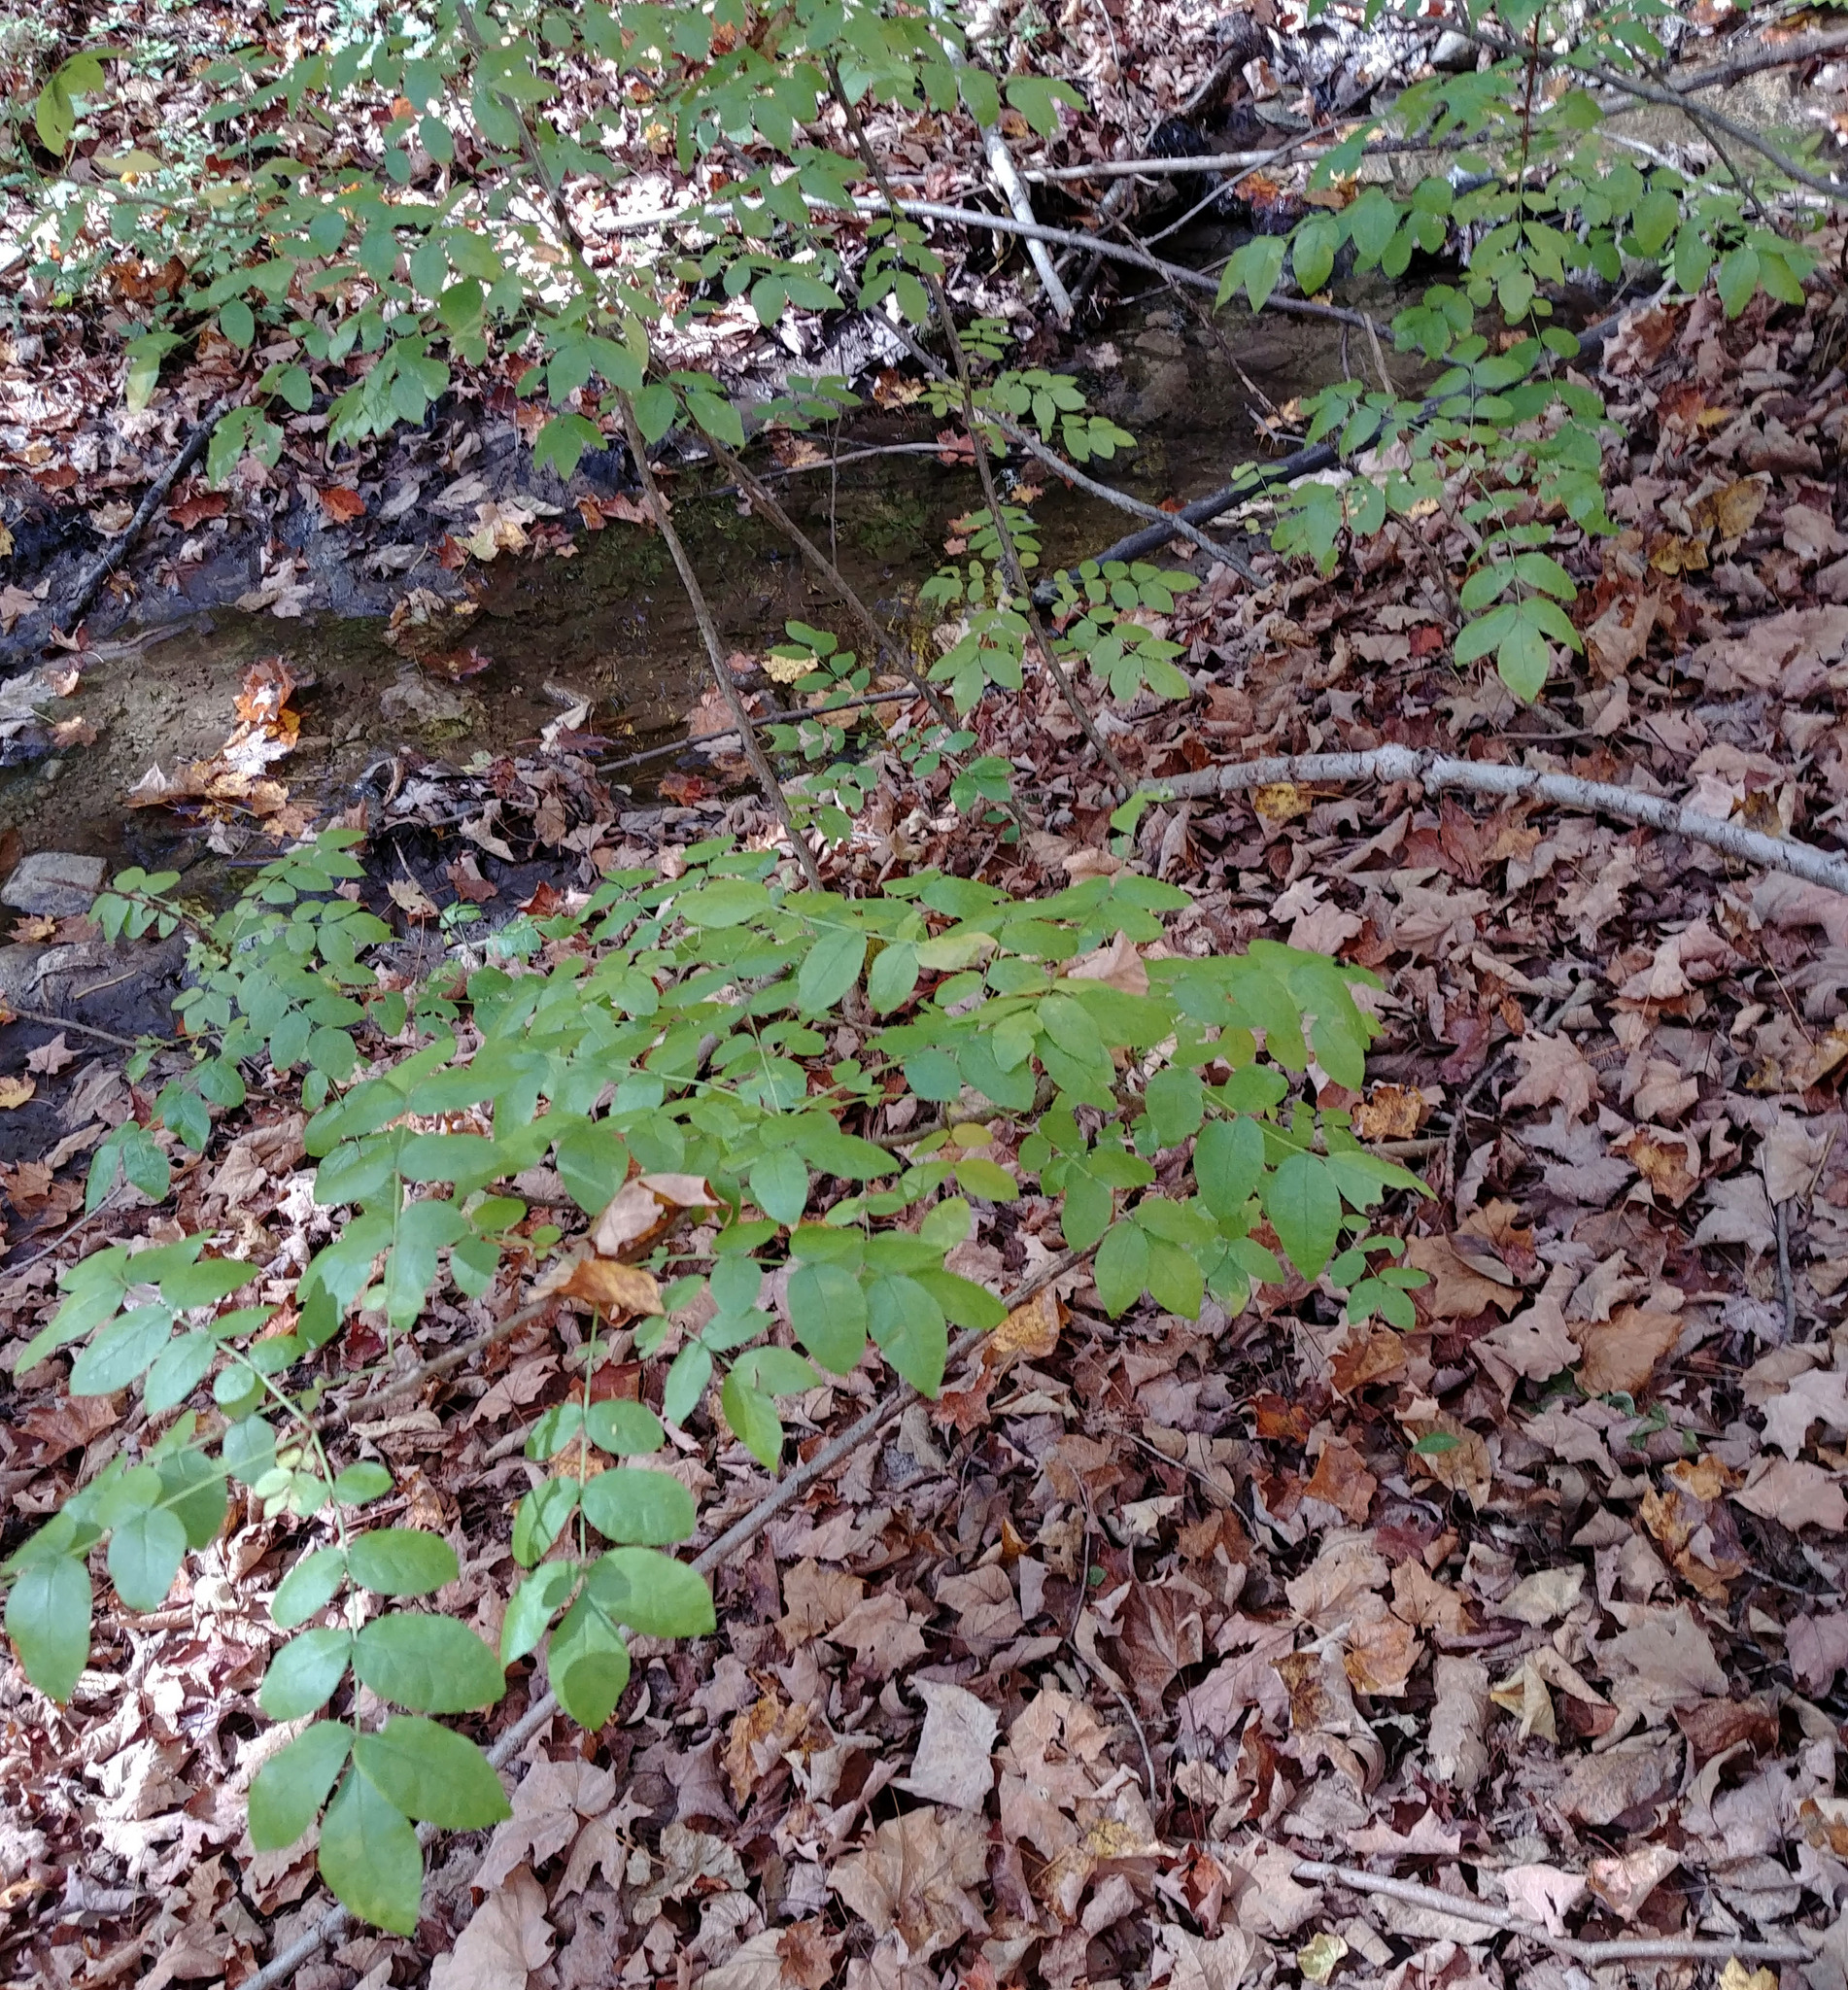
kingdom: Plantae
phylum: Tracheophyta
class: Magnoliopsida
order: Sapindales
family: Rutaceae
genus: Zanthoxylum
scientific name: Zanthoxylum americanum
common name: Northern prickly-ash
